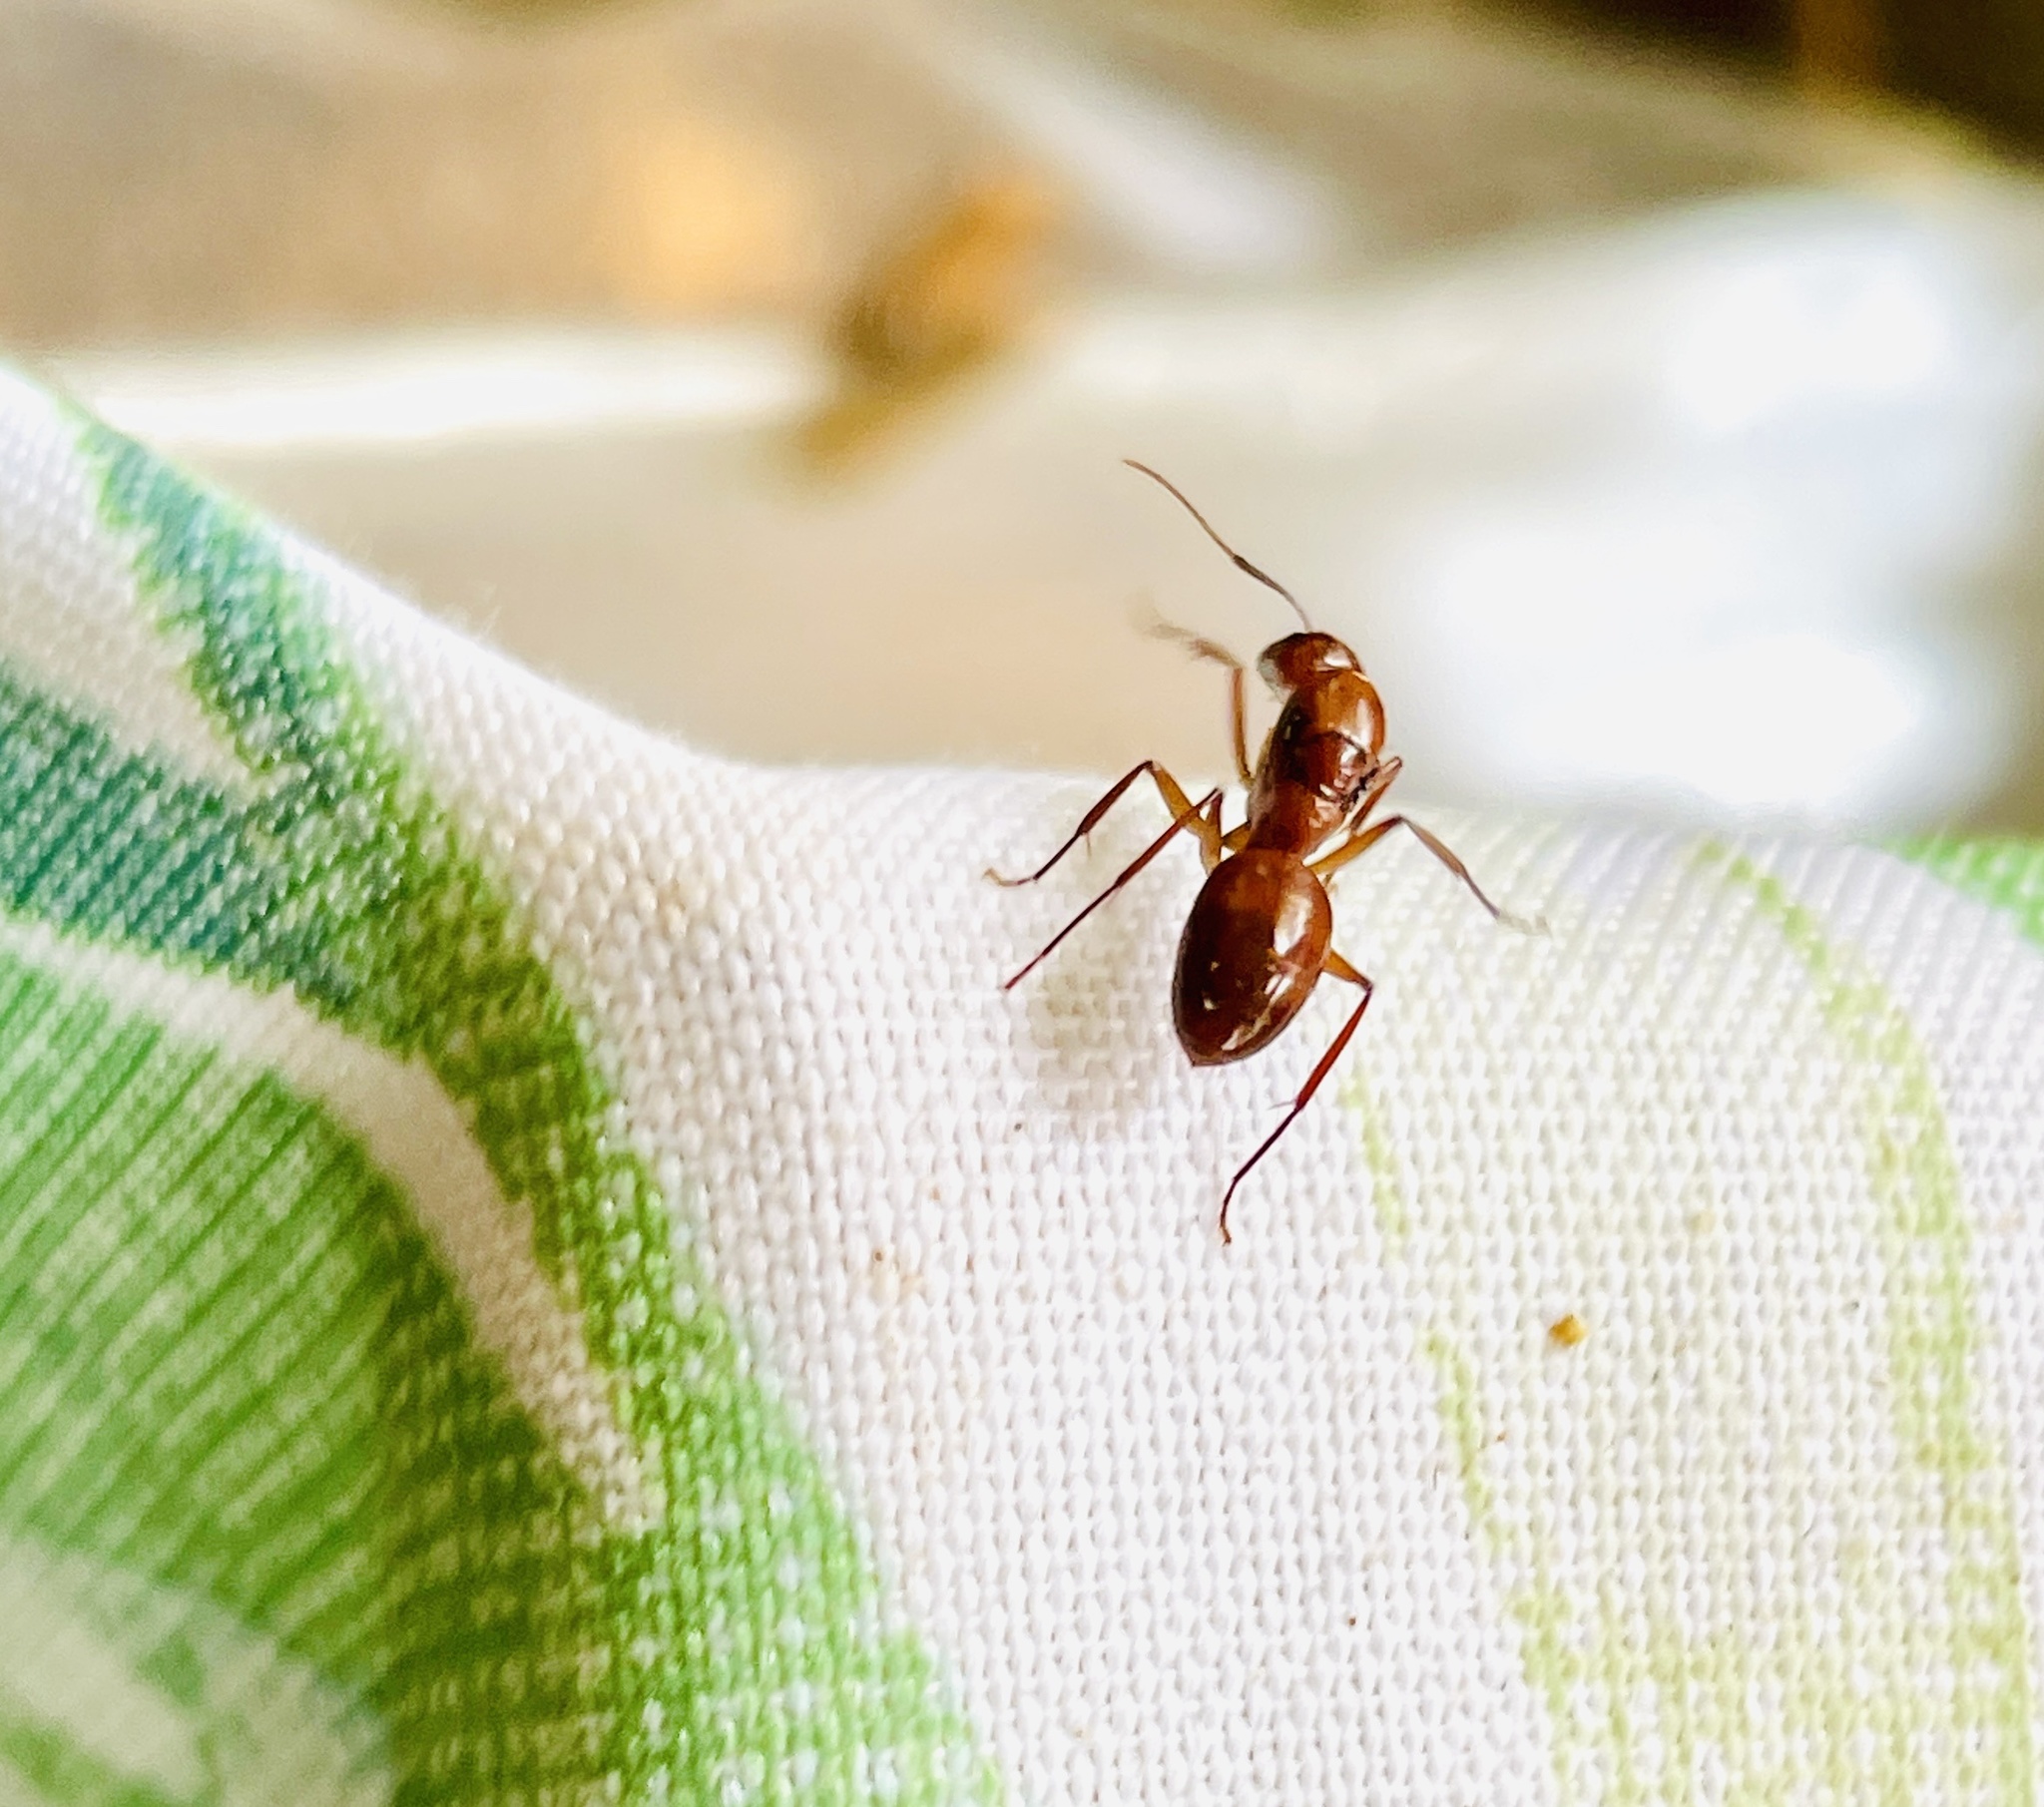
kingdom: Animalia
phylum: Arthropoda
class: Insecta
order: Hymenoptera
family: Formicidae
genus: Camponotus
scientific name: Camponotus castaneus
